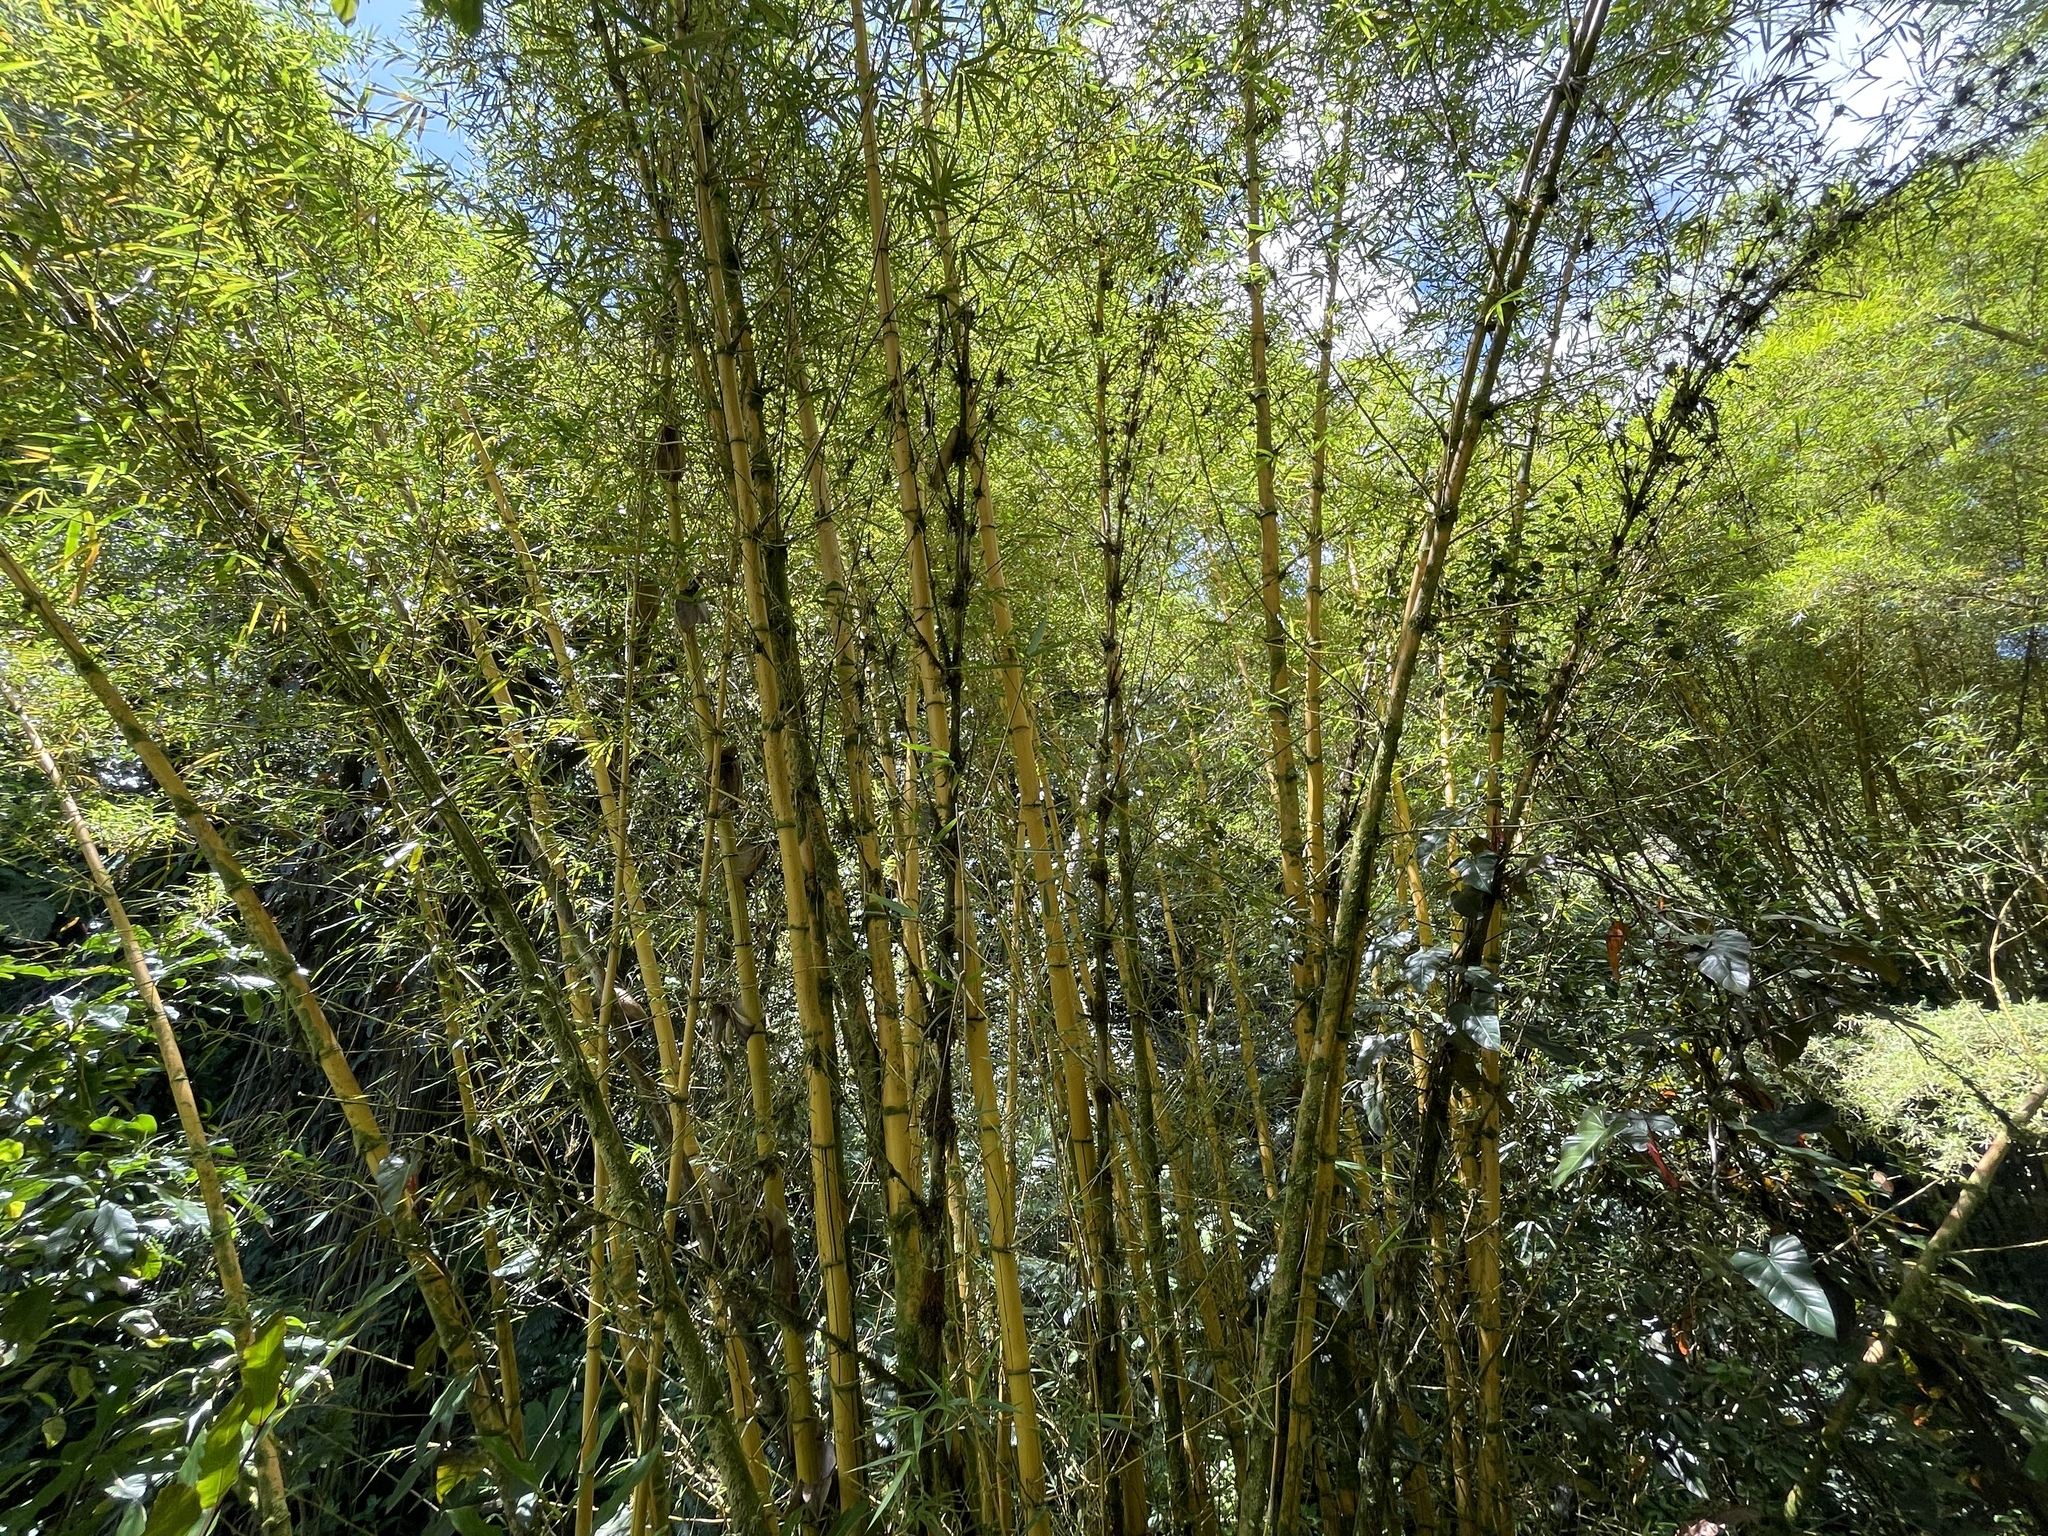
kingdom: Plantae
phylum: Tracheophyta
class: Liliopsida
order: Poales
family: Poaceae
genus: Bambusa
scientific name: Bambusa vulgaris
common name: Common bamboo
